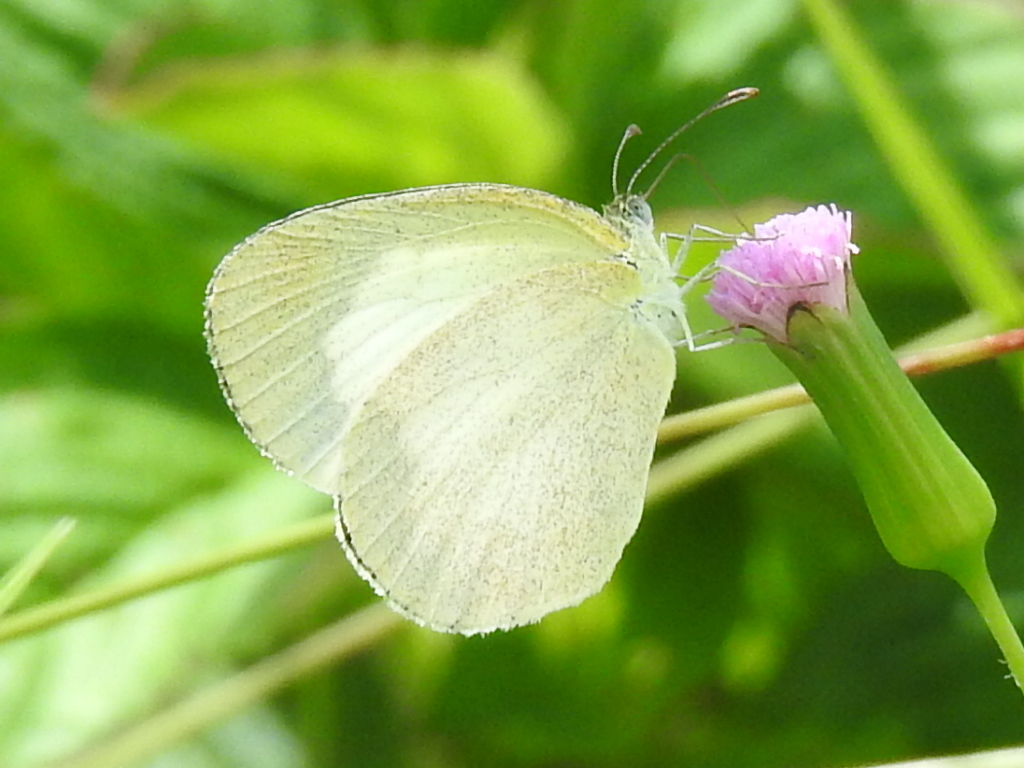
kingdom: Animalia
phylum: Arthropoda
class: Insecta
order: Lepidoptera
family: Pieridae
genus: Eurema
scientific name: Eurema daira
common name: Barred sulphur
